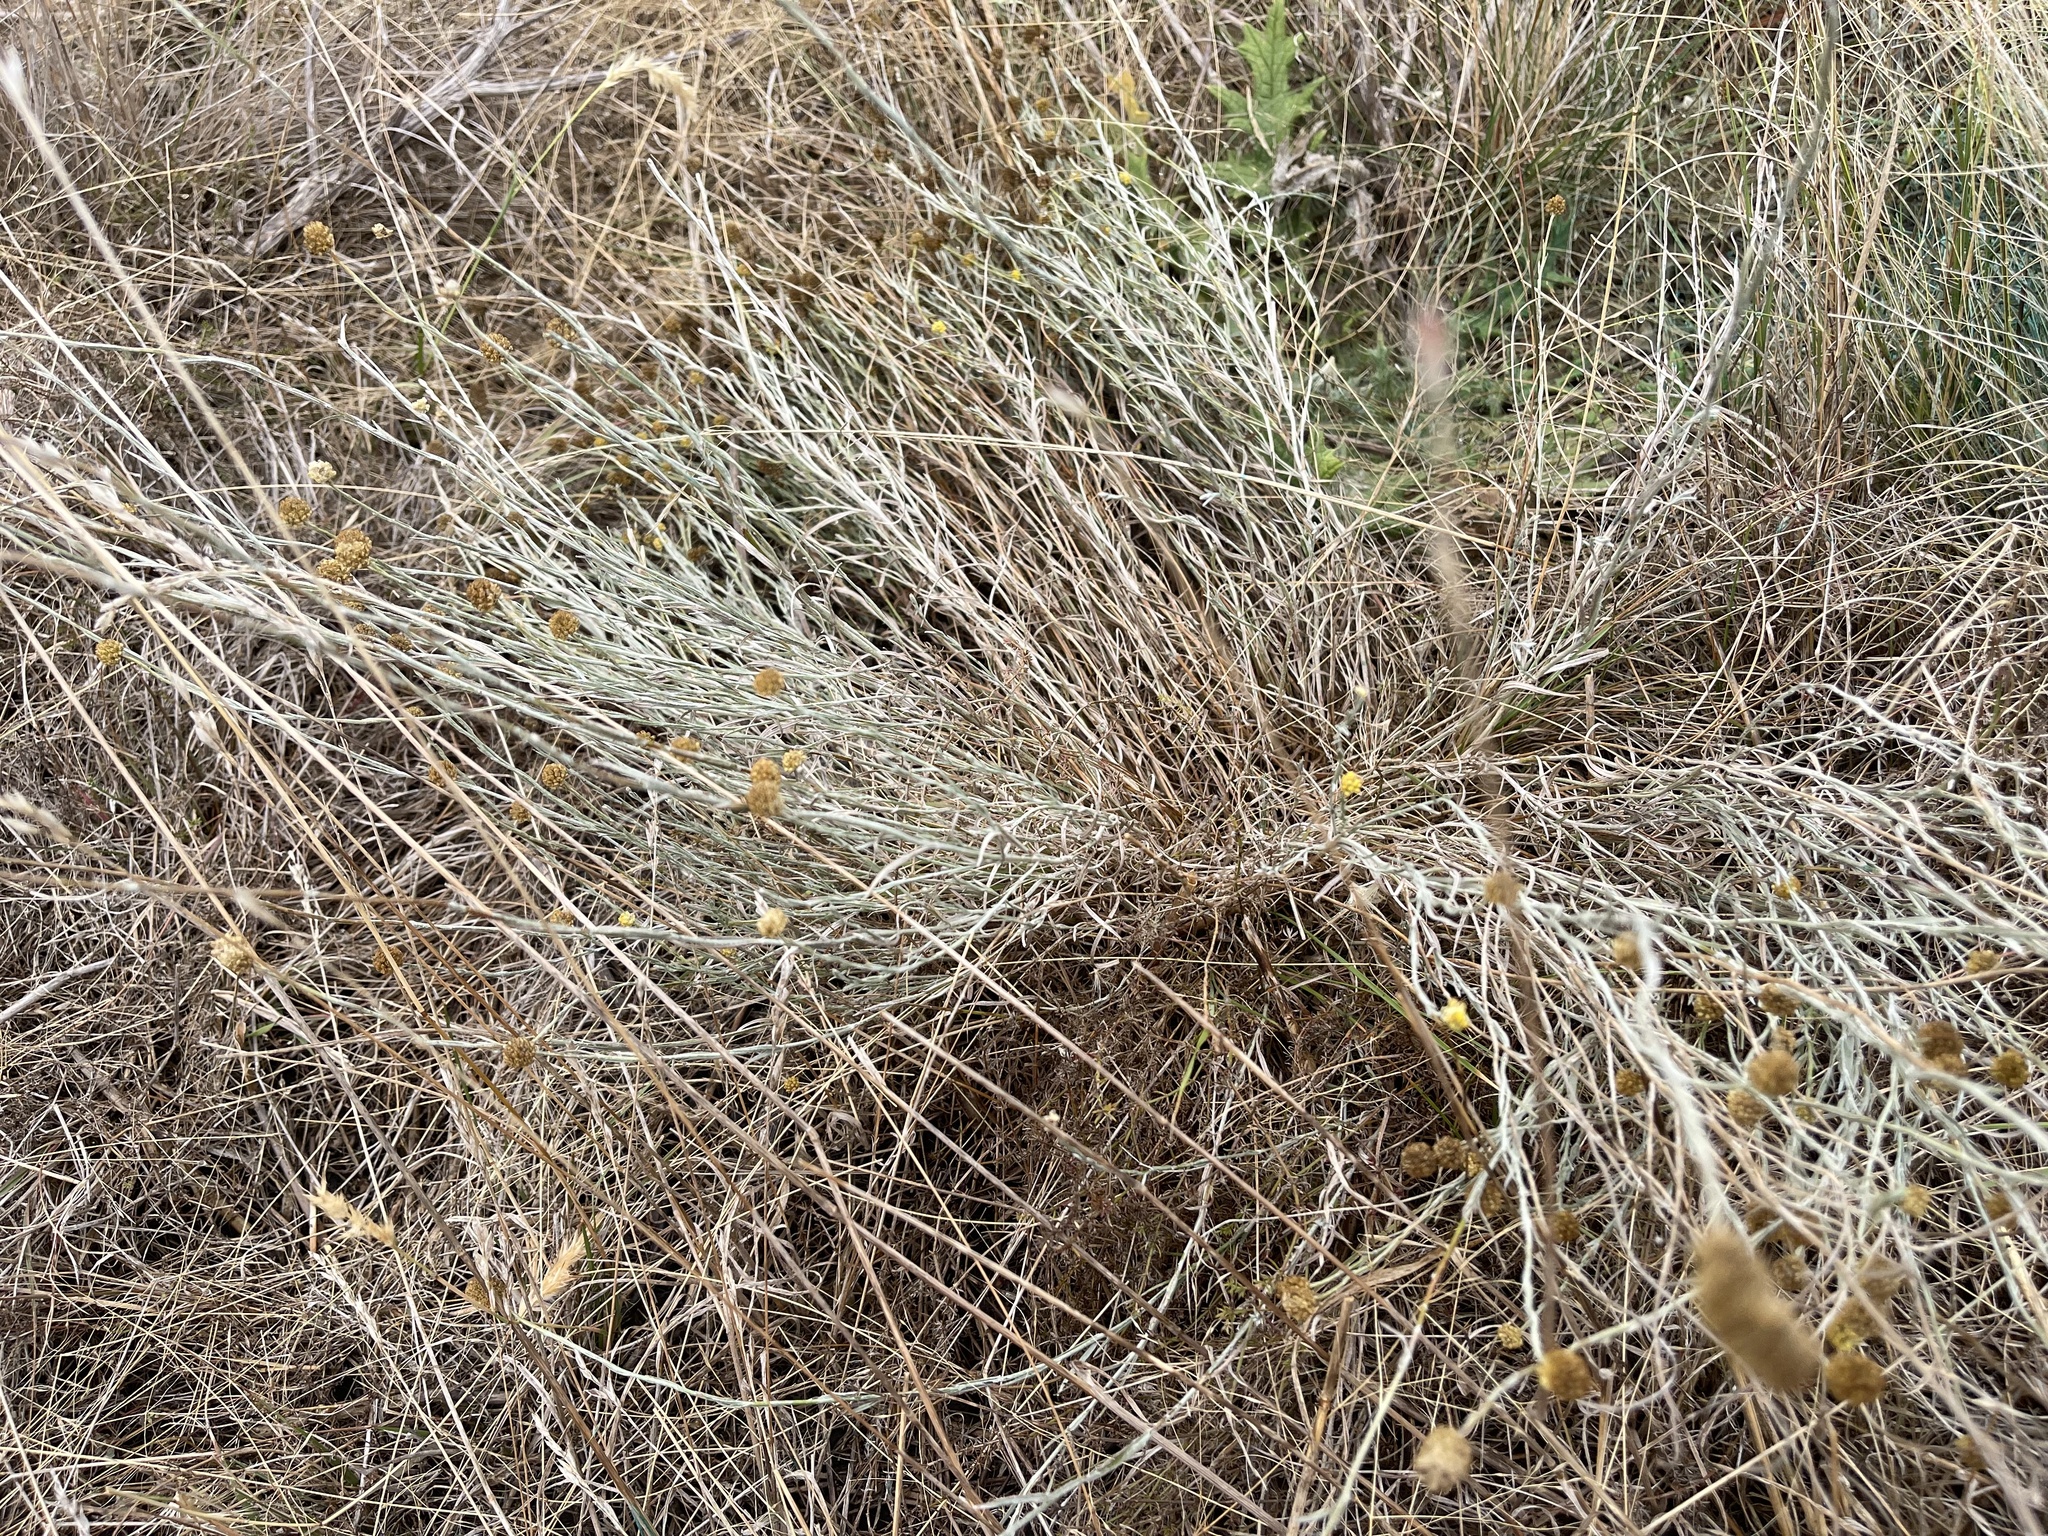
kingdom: Plantae
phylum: Tracheophyta
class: Magnoliopsida
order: Asterales
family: Asteraceae
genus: Calocephalus
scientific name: Calocephalus citreus
